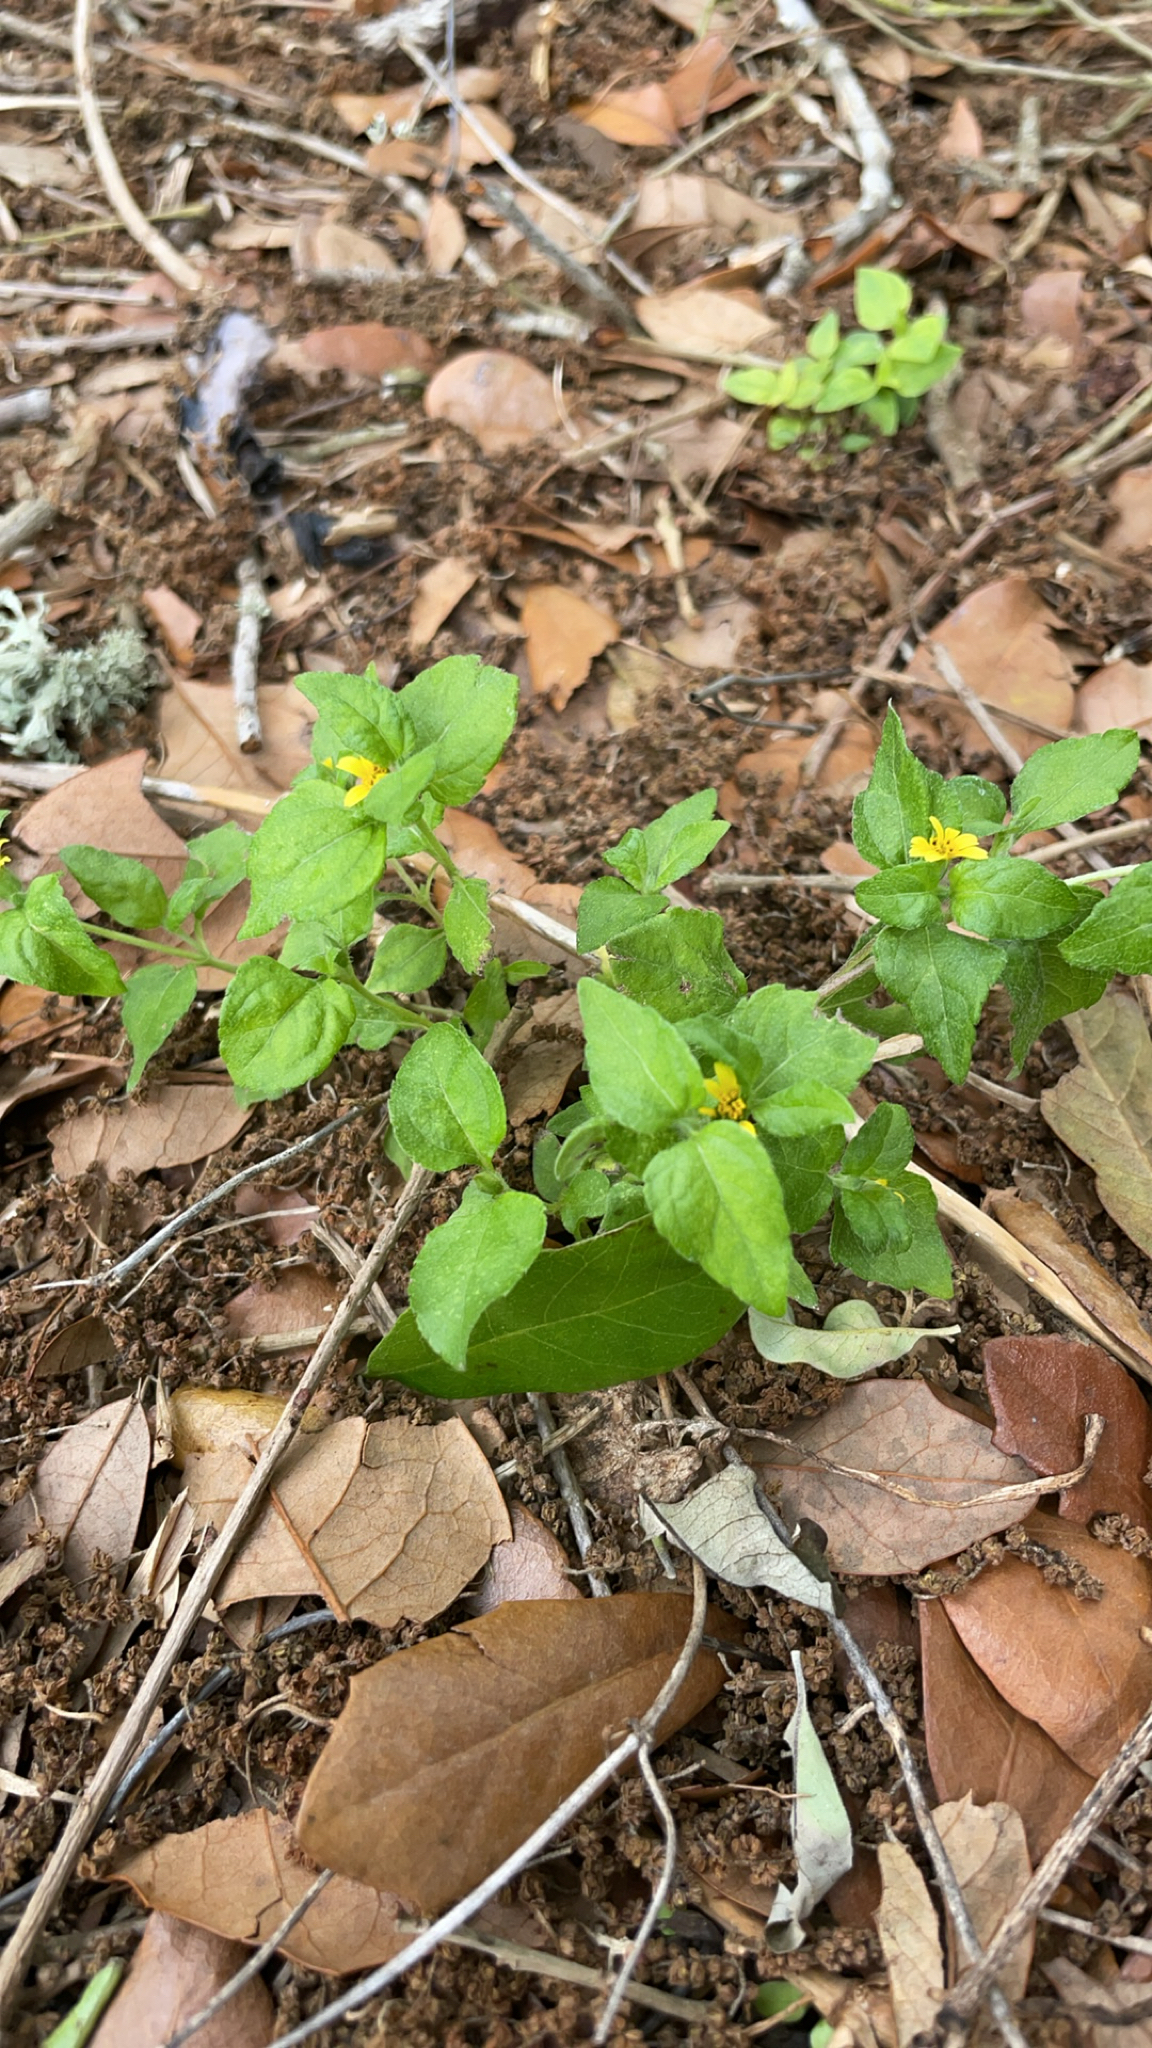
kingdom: Plantae
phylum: Tracheophyta
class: Magnoliopsida
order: Asterales
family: Asteraceae
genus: Calyptocarpus
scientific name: Calyptocarpus vialis
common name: Straggler daisy
